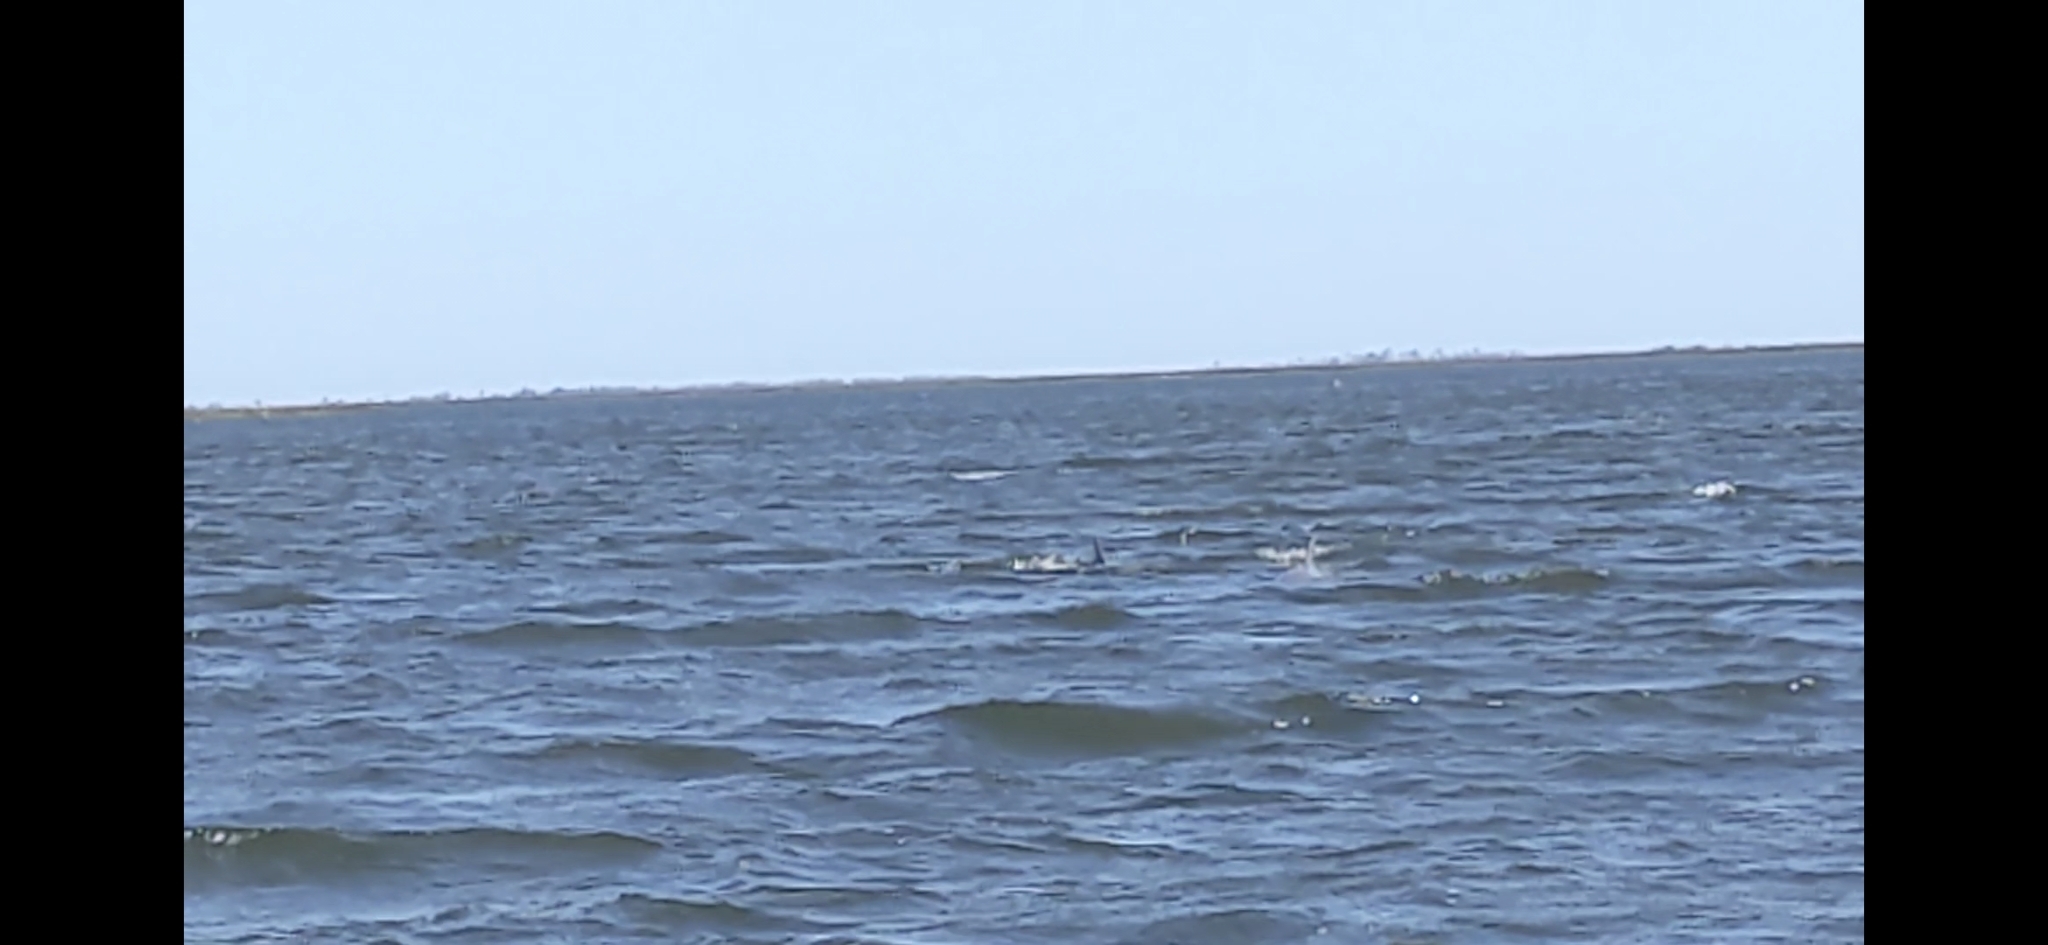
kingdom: Animalia
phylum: Chordata
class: Mammalia
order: Cetacea
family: Delphinidae
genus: Tursiops
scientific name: Tursiops truncatus
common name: Bottlenose dolphin
